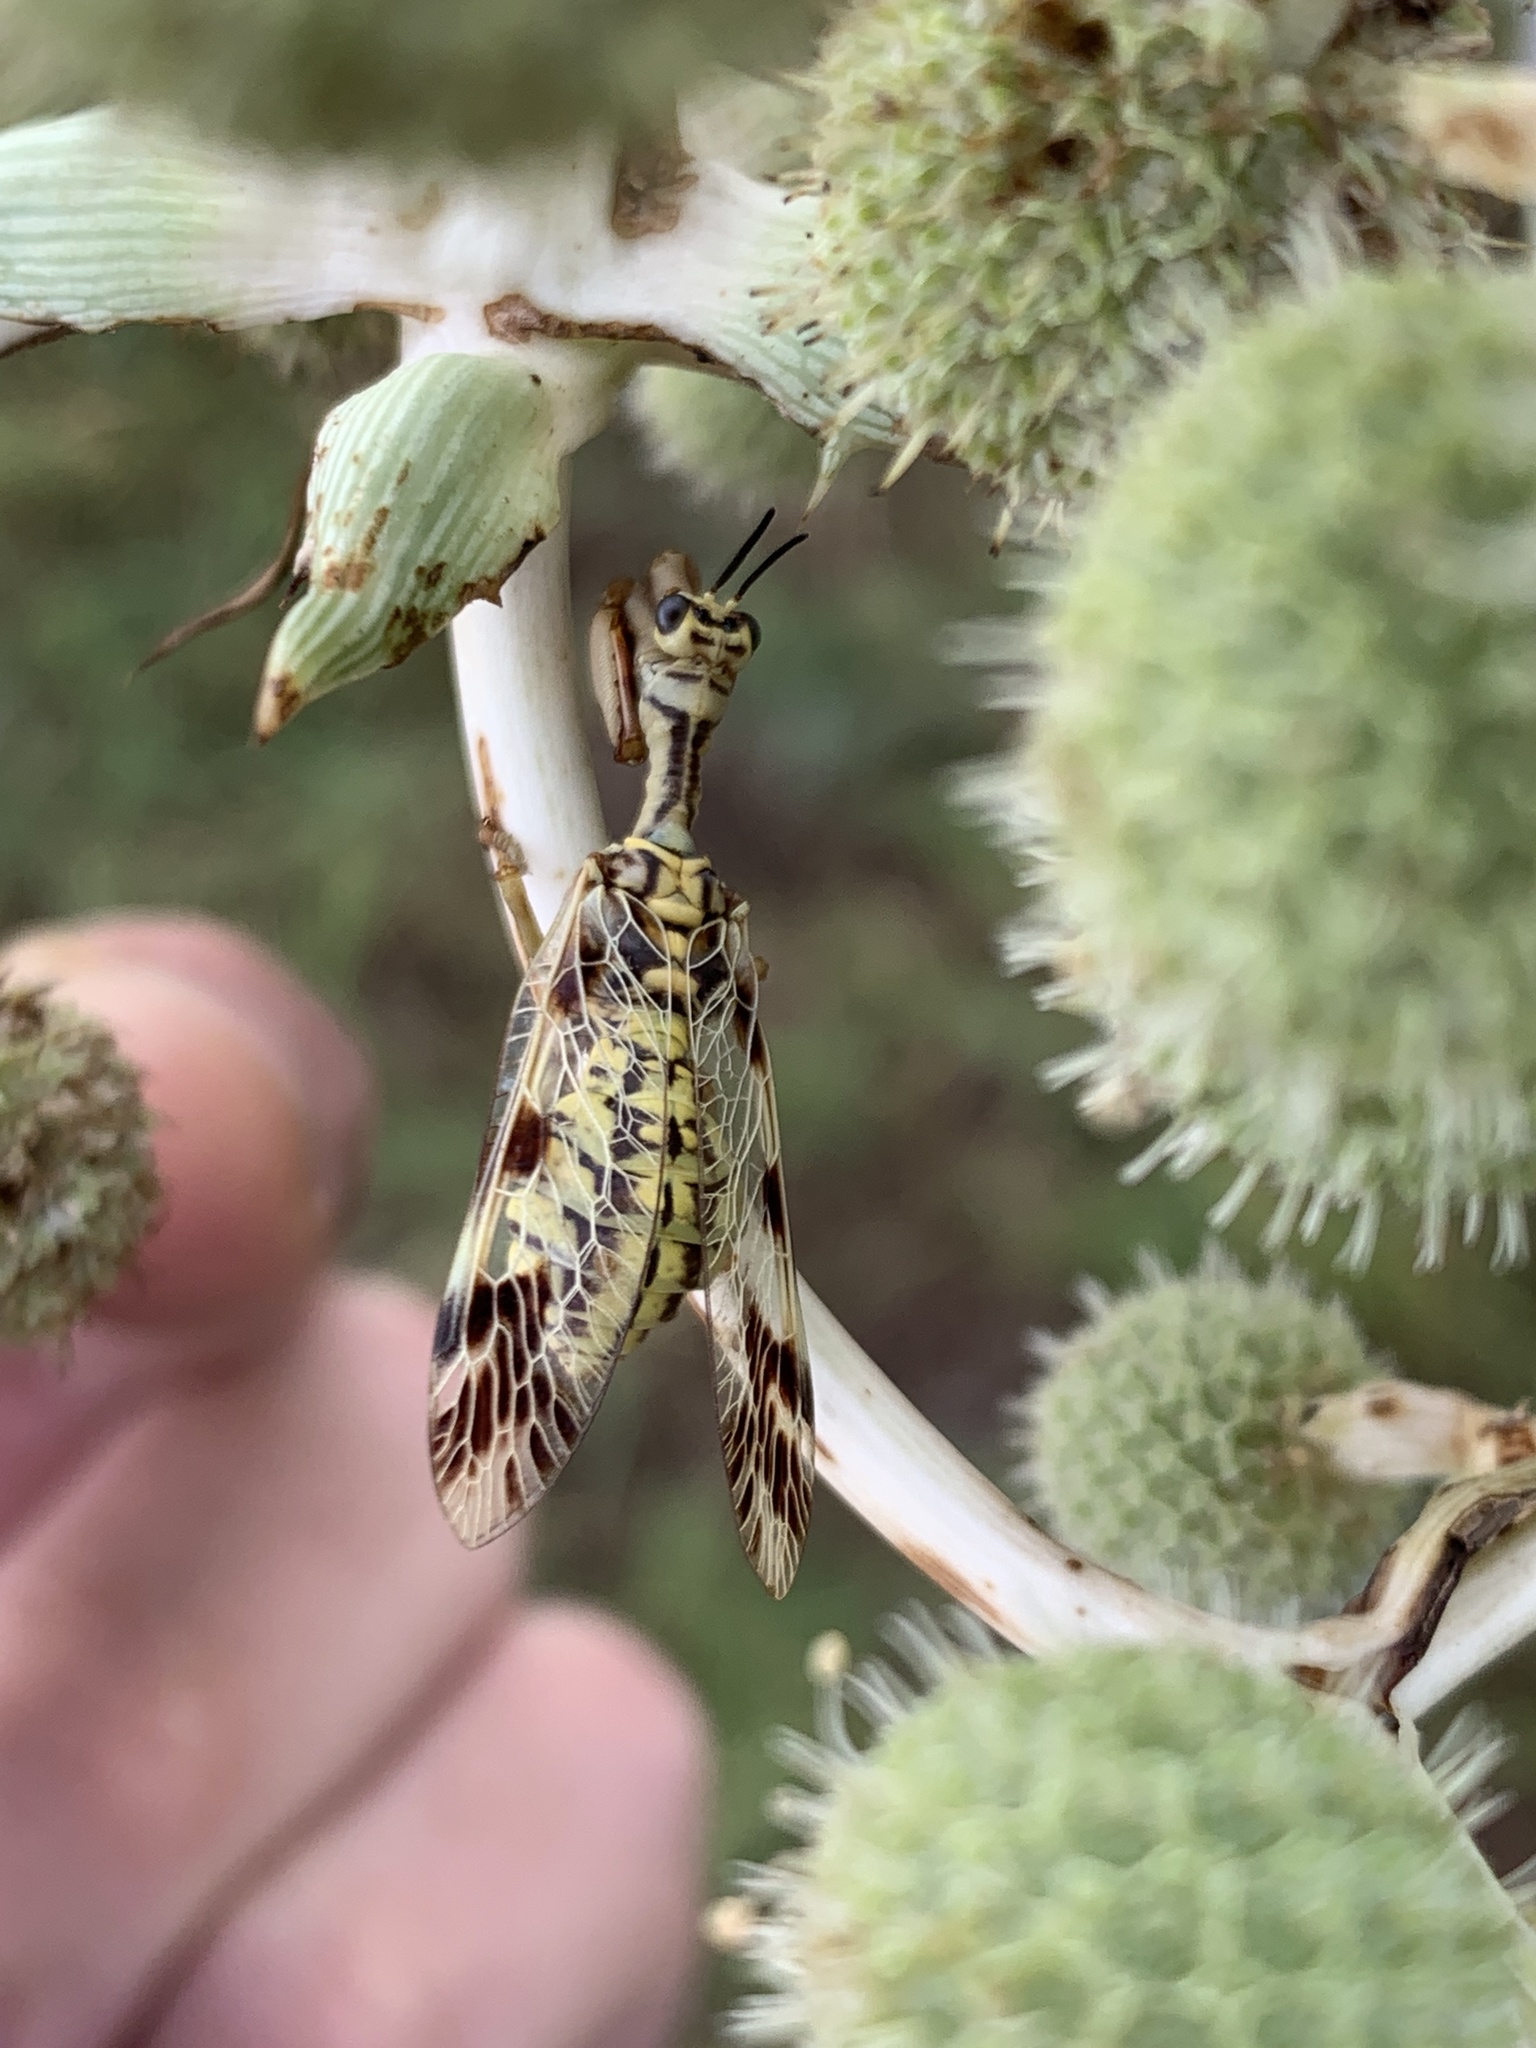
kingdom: Animalia
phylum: Arthropoda
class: Insecta
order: Neuroptera
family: Mantispidae
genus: Paramantispa
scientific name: Paramantispa ambusta
